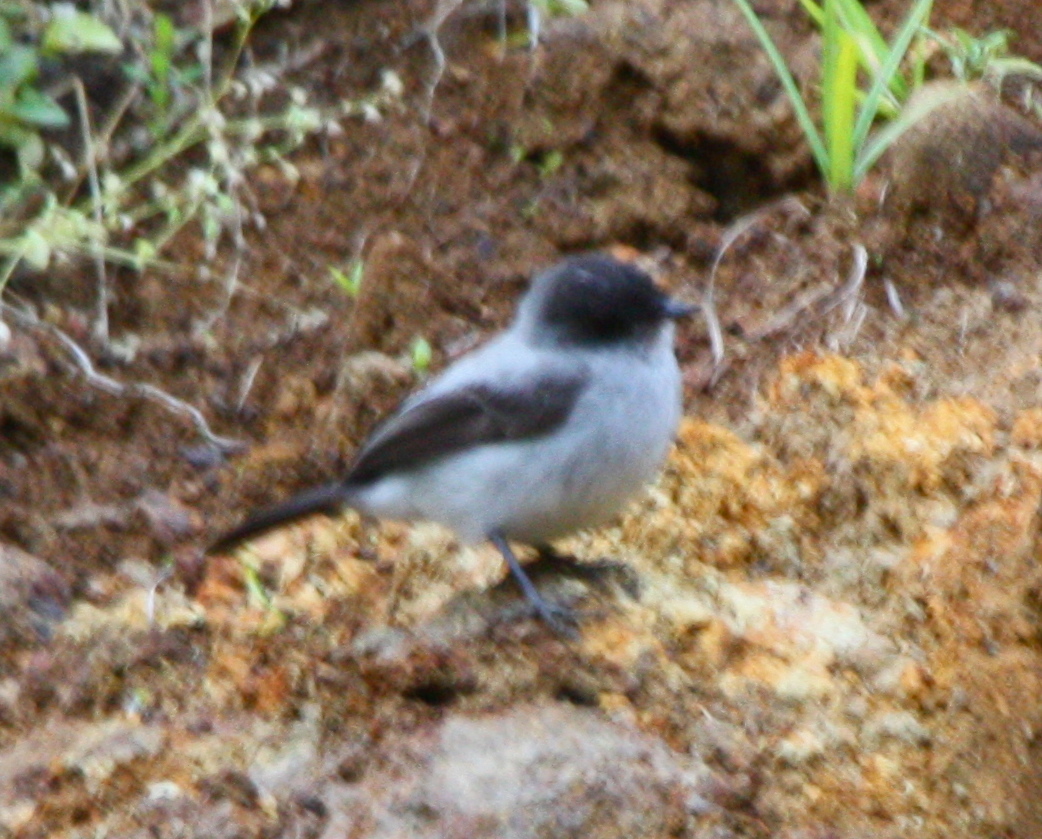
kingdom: Animalia
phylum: Chordata
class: Aves
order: Passeriformes
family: Tyrannidae
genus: Serpophaga
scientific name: Serpophaga cinerea
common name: Torrent tyrannulet
